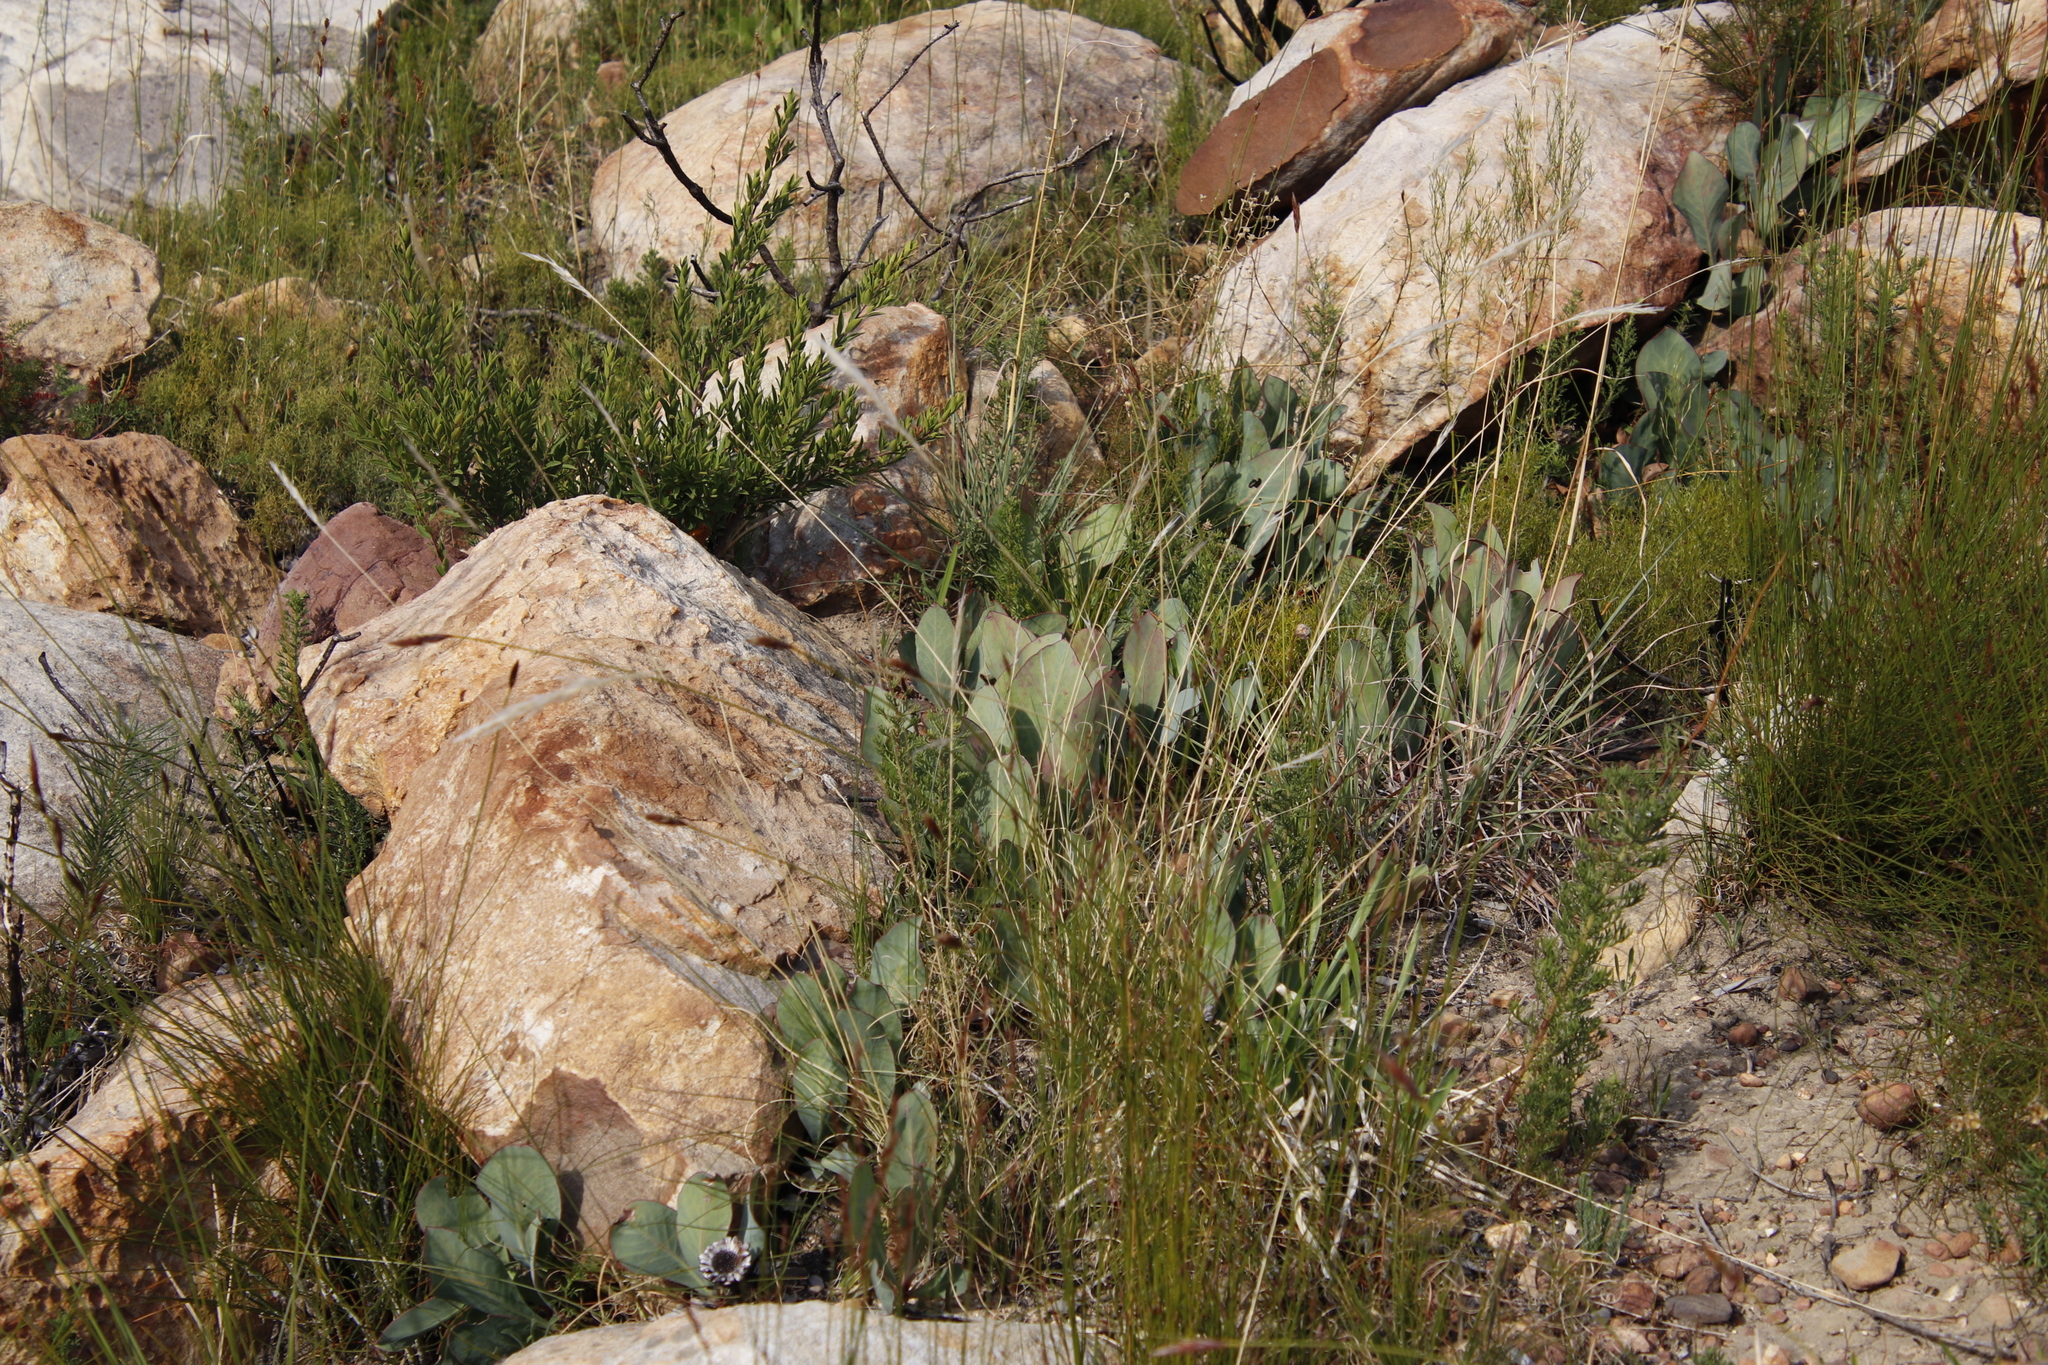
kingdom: Plantae
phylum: Tracheophyta
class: Magnoliopsida
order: Proteales
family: Proteaceae
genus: Protea
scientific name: Protea acaulos
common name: Common ground sugarbush
